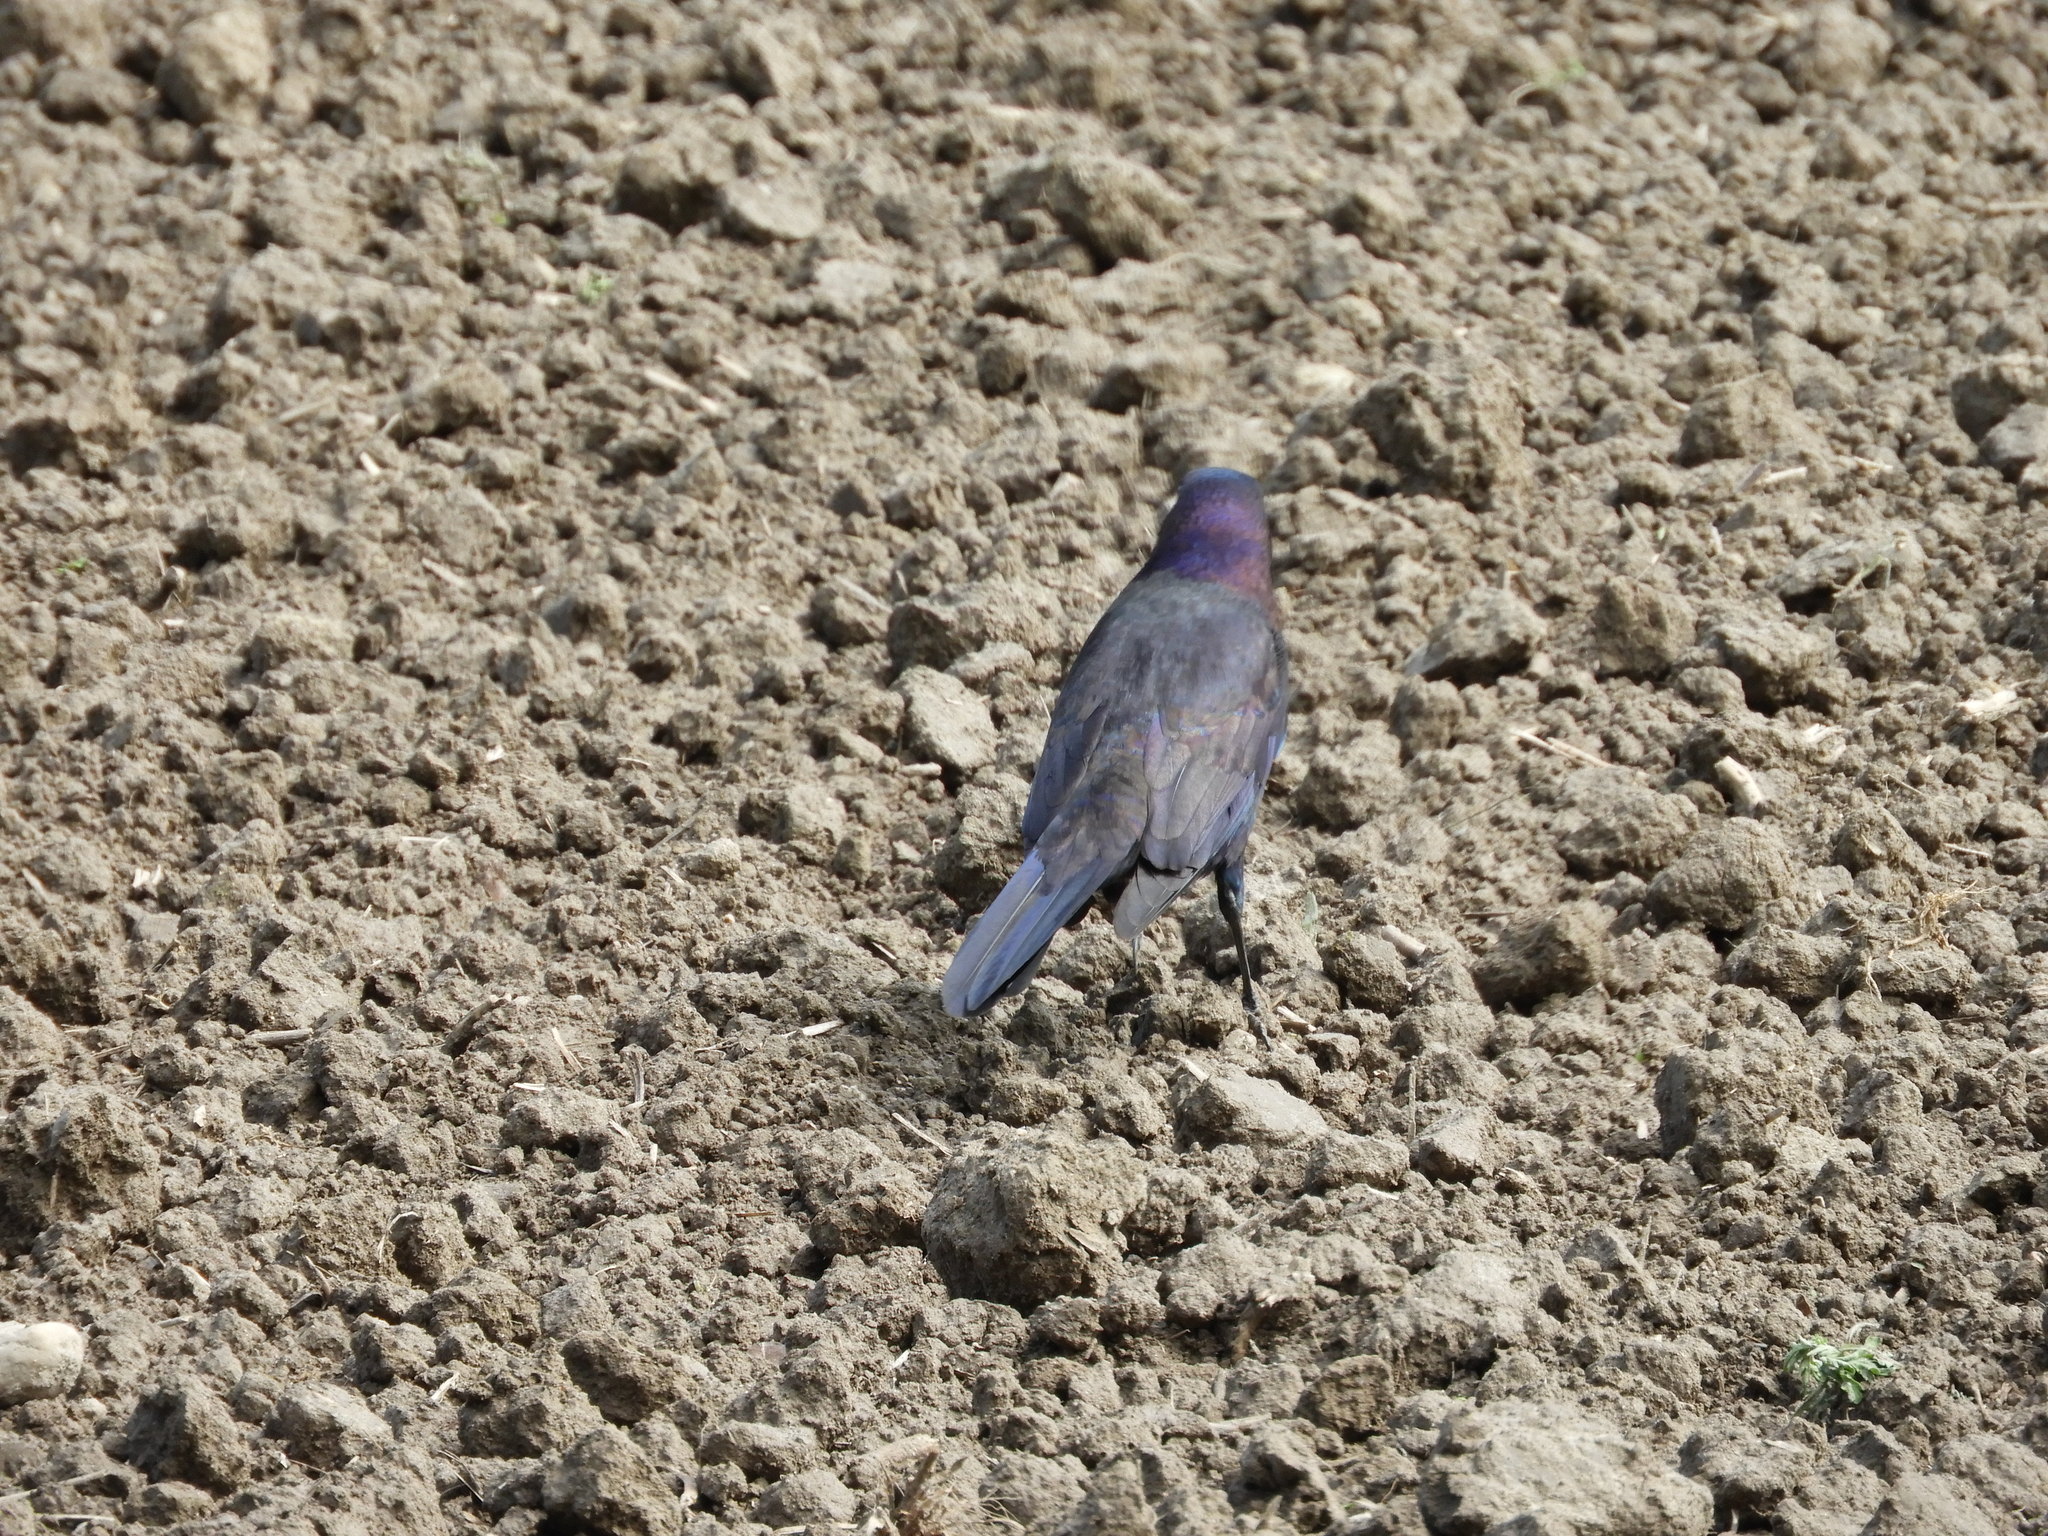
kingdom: Animalia
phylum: Chordata
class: Aves
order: Passeriformes
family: Icteridae
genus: Quiscalus
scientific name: Quiscalus quiscula
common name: Common grackle
